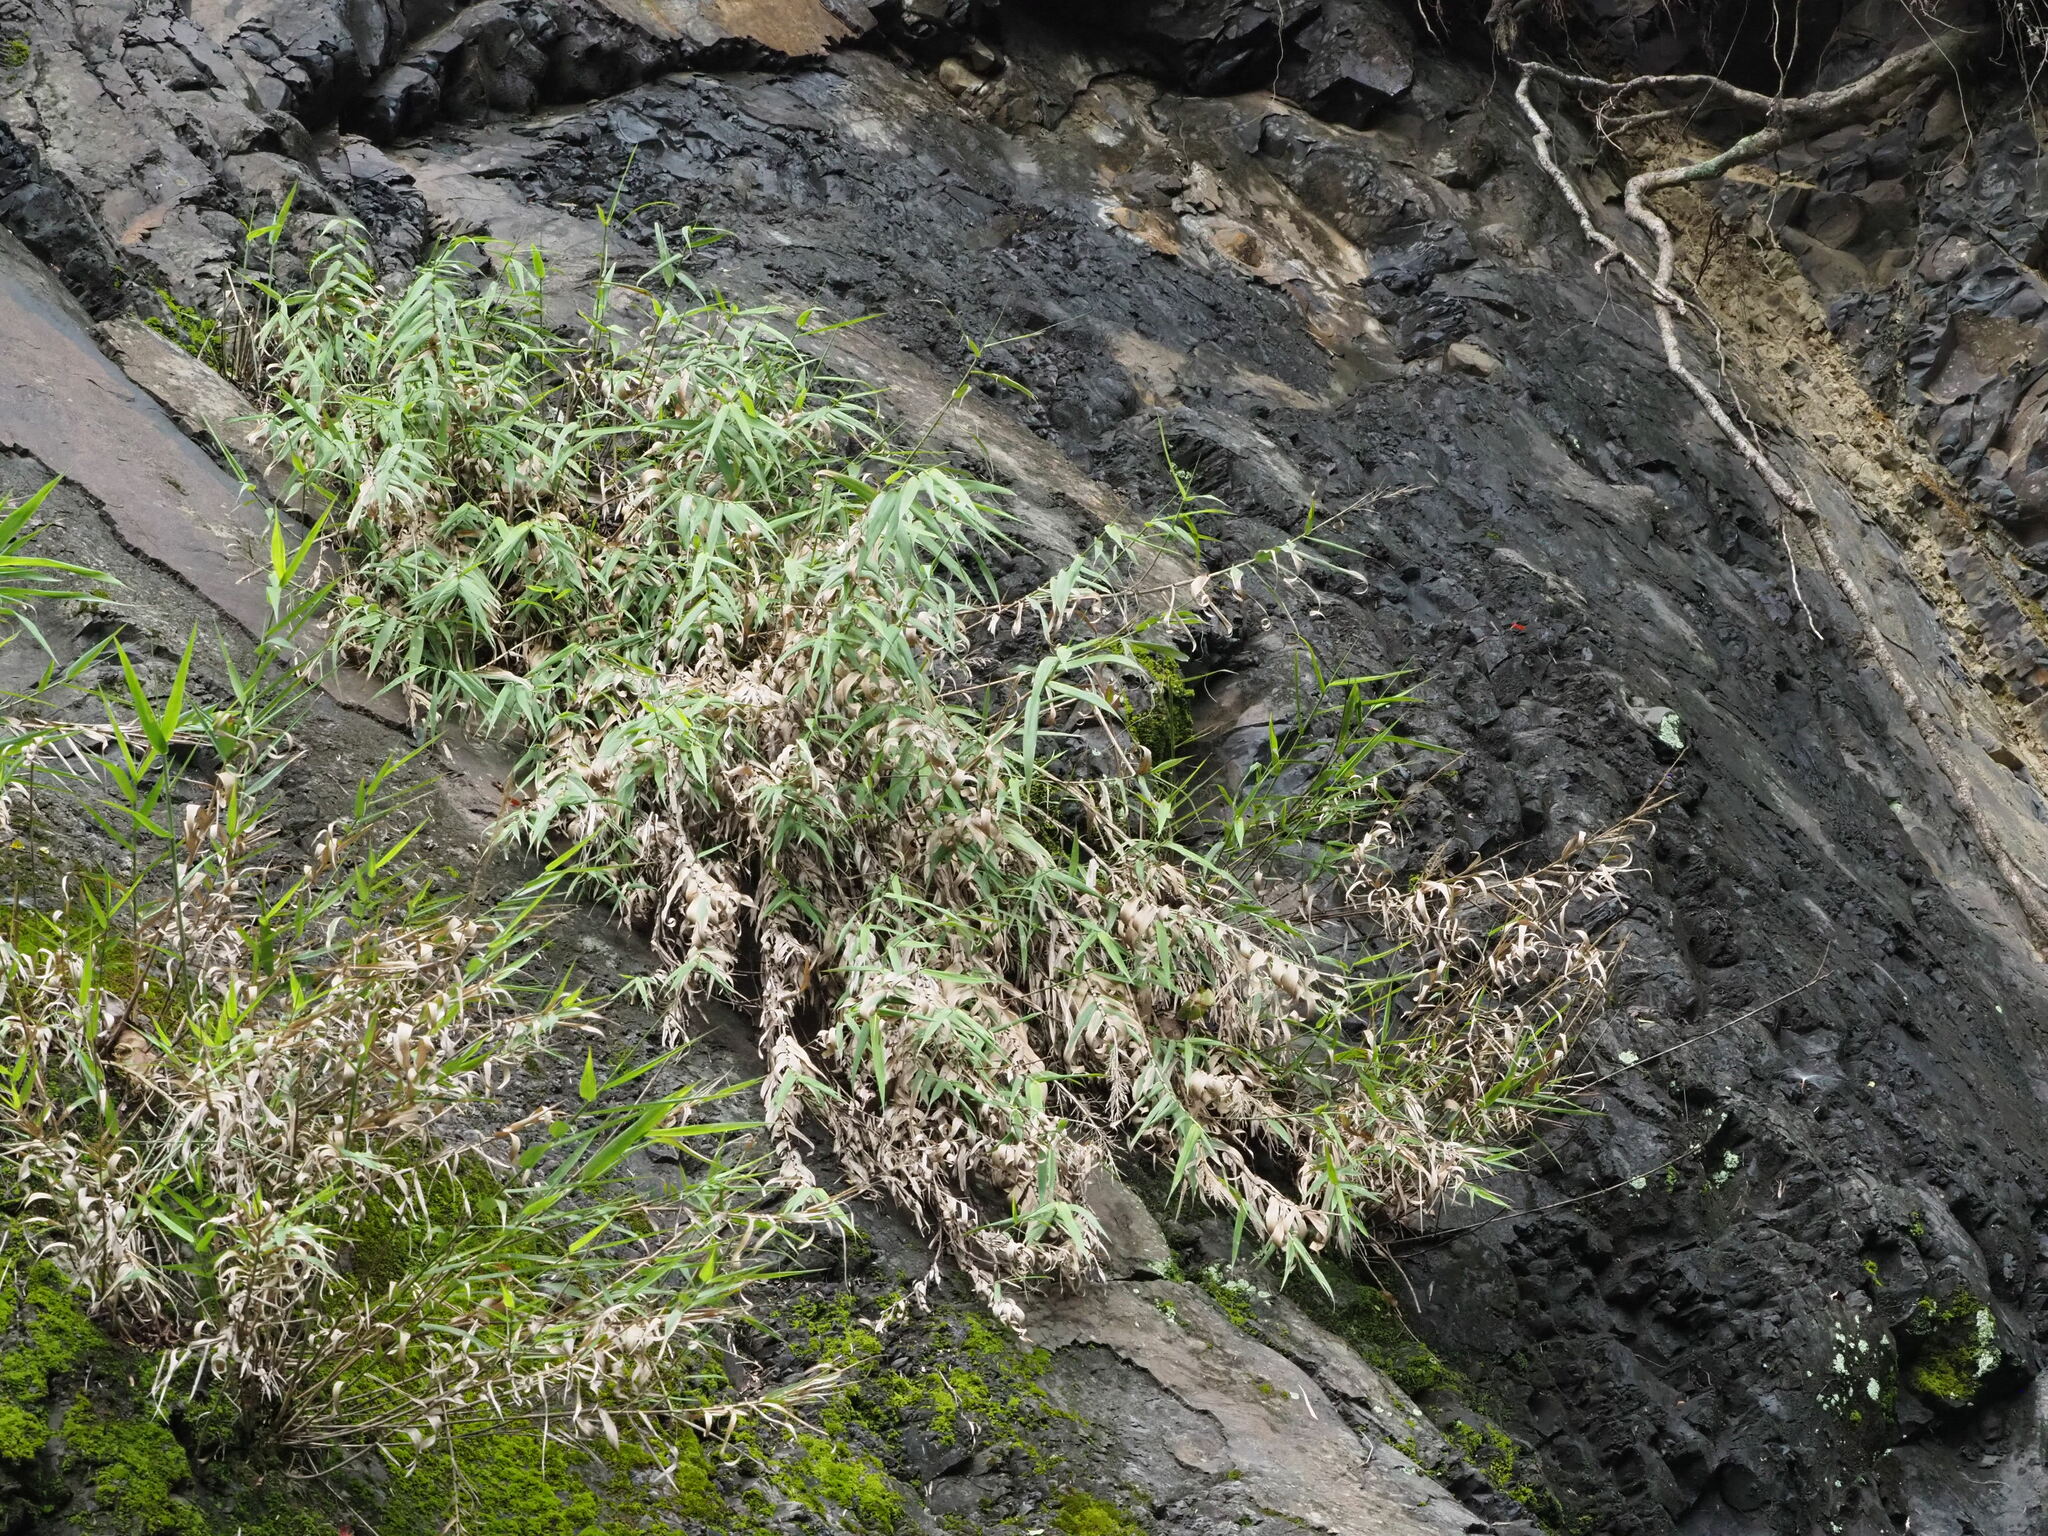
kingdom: Plantae
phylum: Tracheophyta
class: Liliopsida
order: Poales
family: Poaceae
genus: Arundo
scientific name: Arundo formosana
